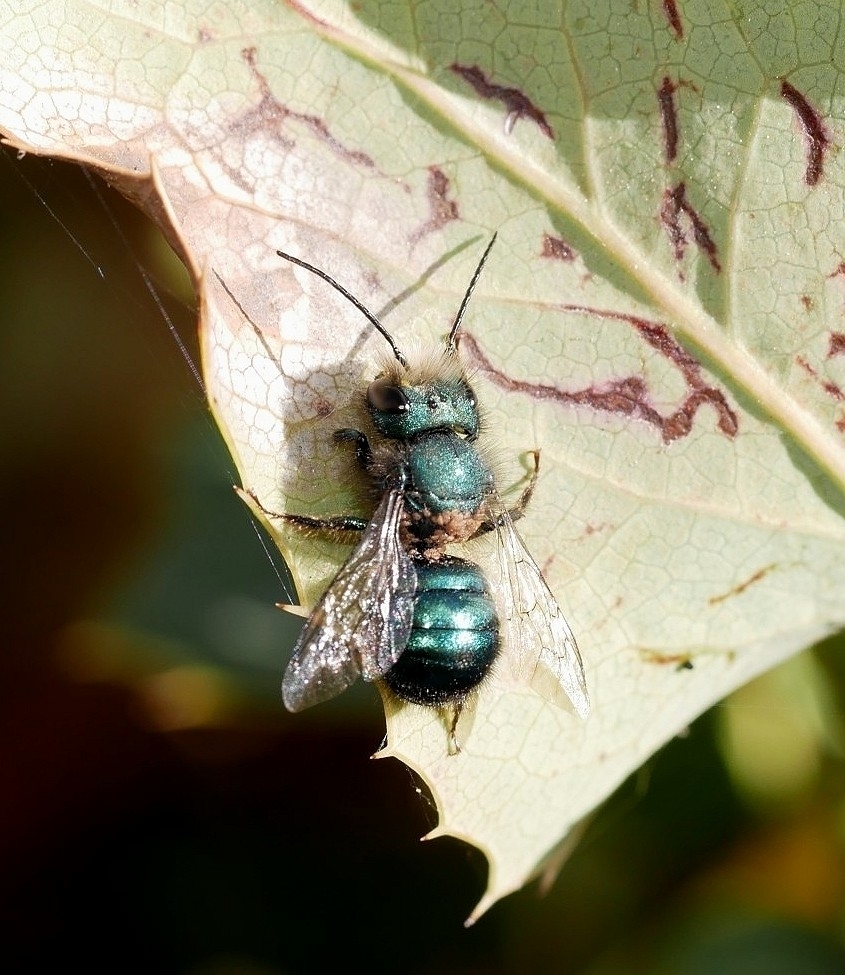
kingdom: Animalia
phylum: Arthropoda
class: Insecta
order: Hymenoptera
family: Megachilidae
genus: Osmia
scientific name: Osmia ribifloris
